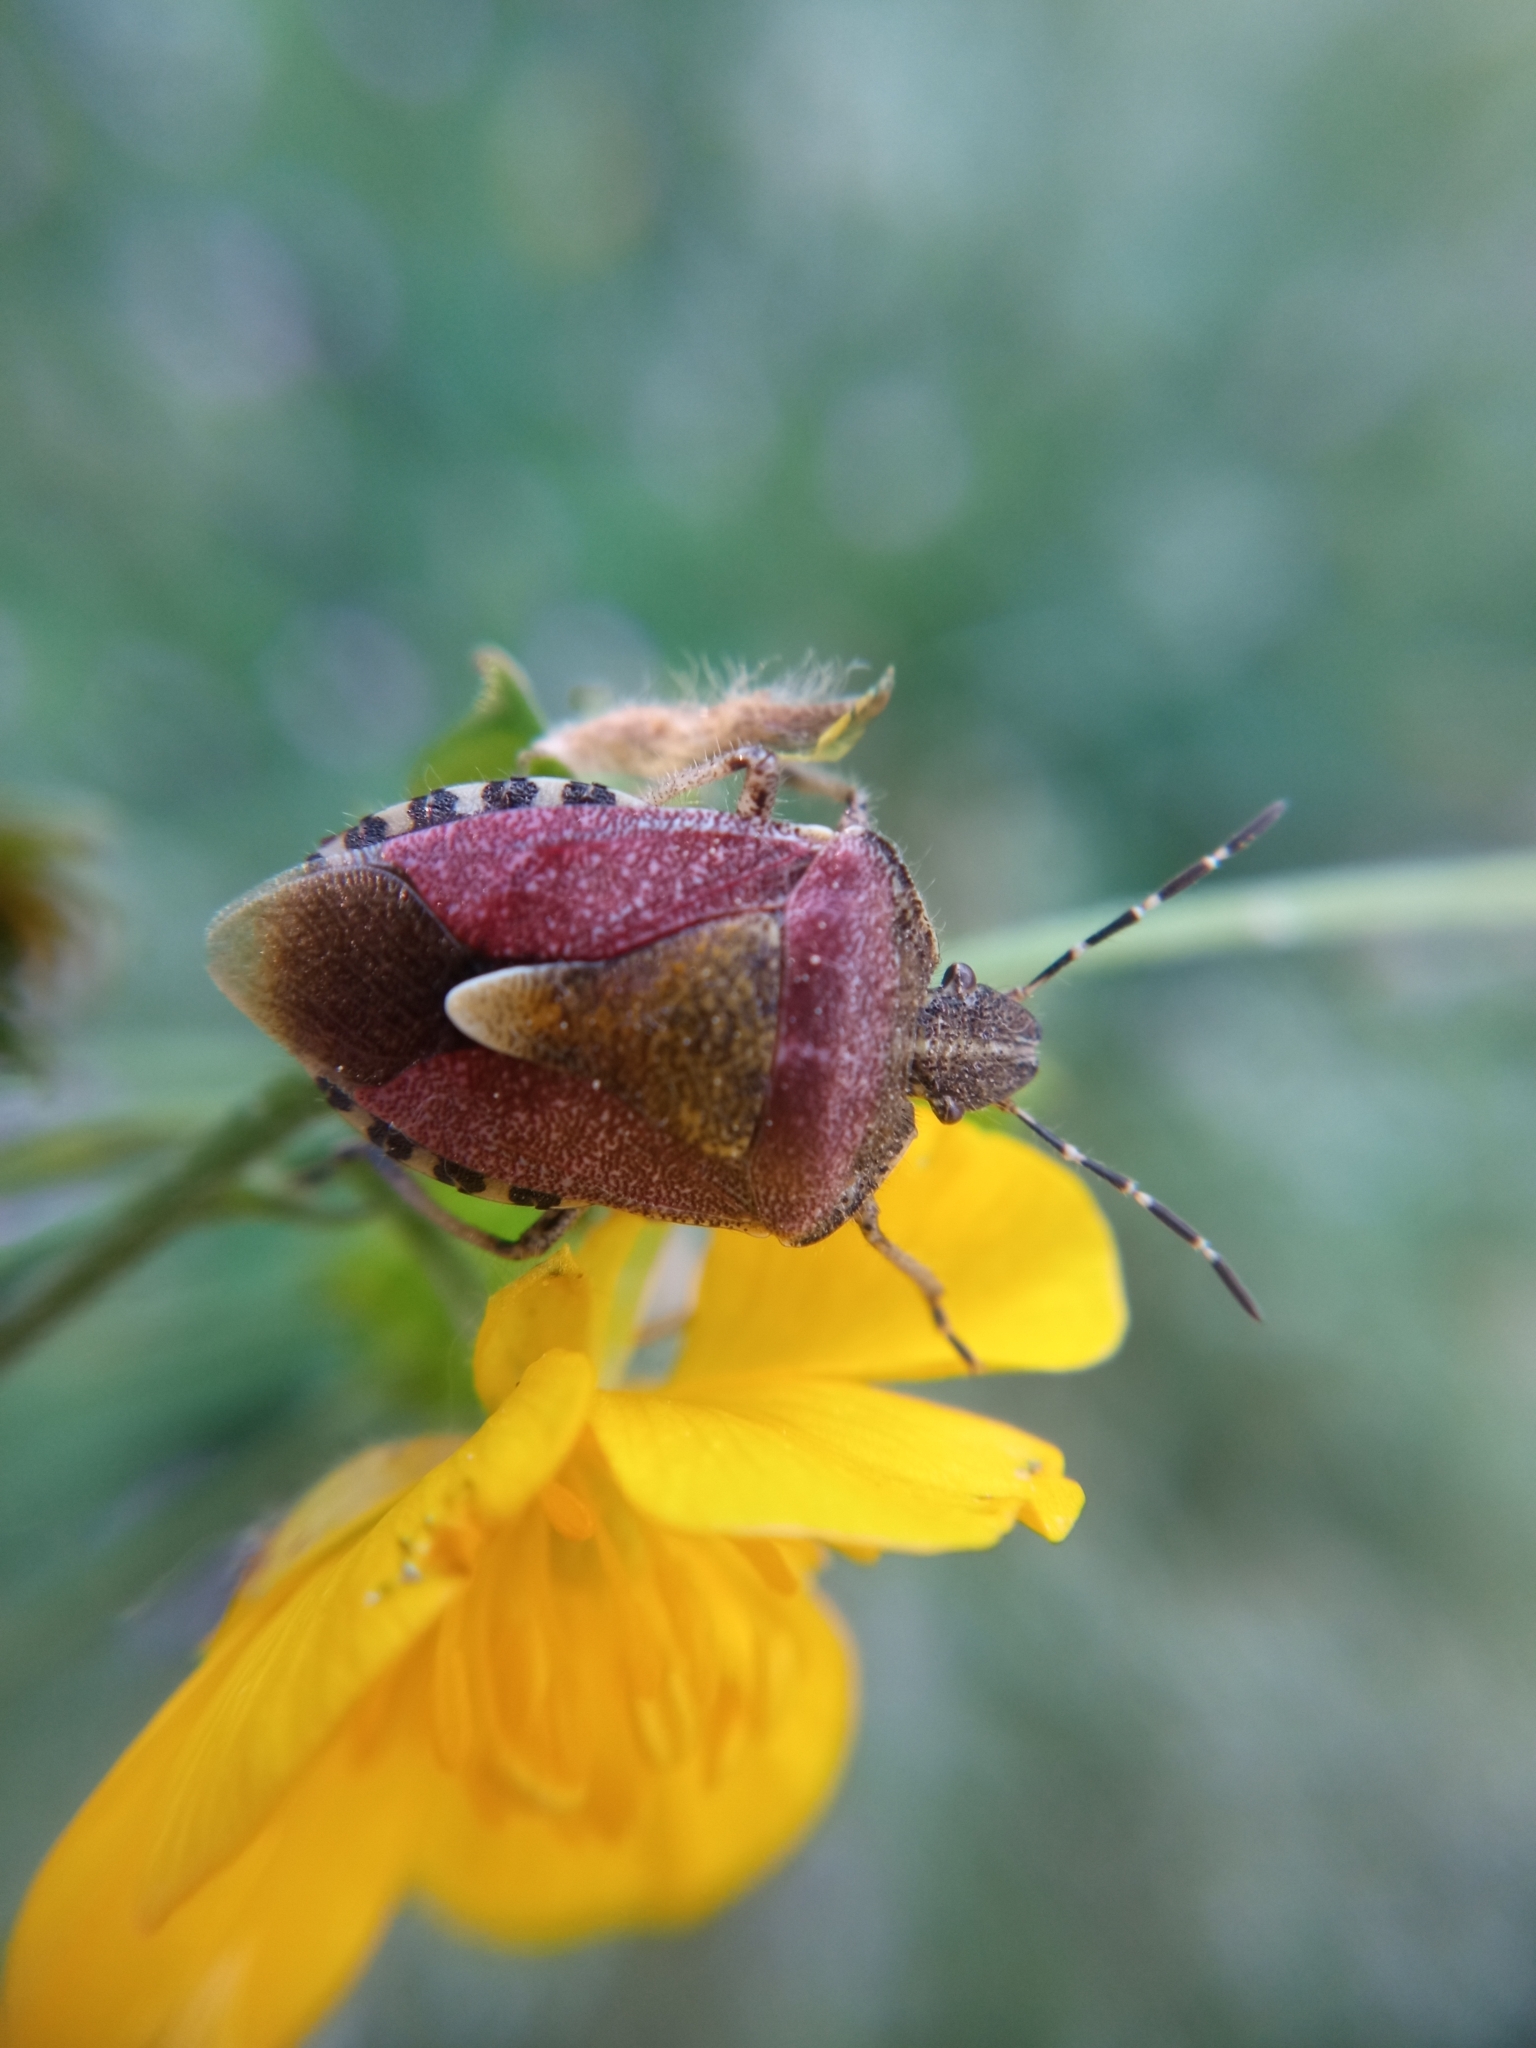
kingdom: Animalia
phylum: Arthropoda
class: Insecta
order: Hemiptera
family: Pentatomidae
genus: Dolycoris
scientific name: Dolycoris baccarum
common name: Sloe bug
